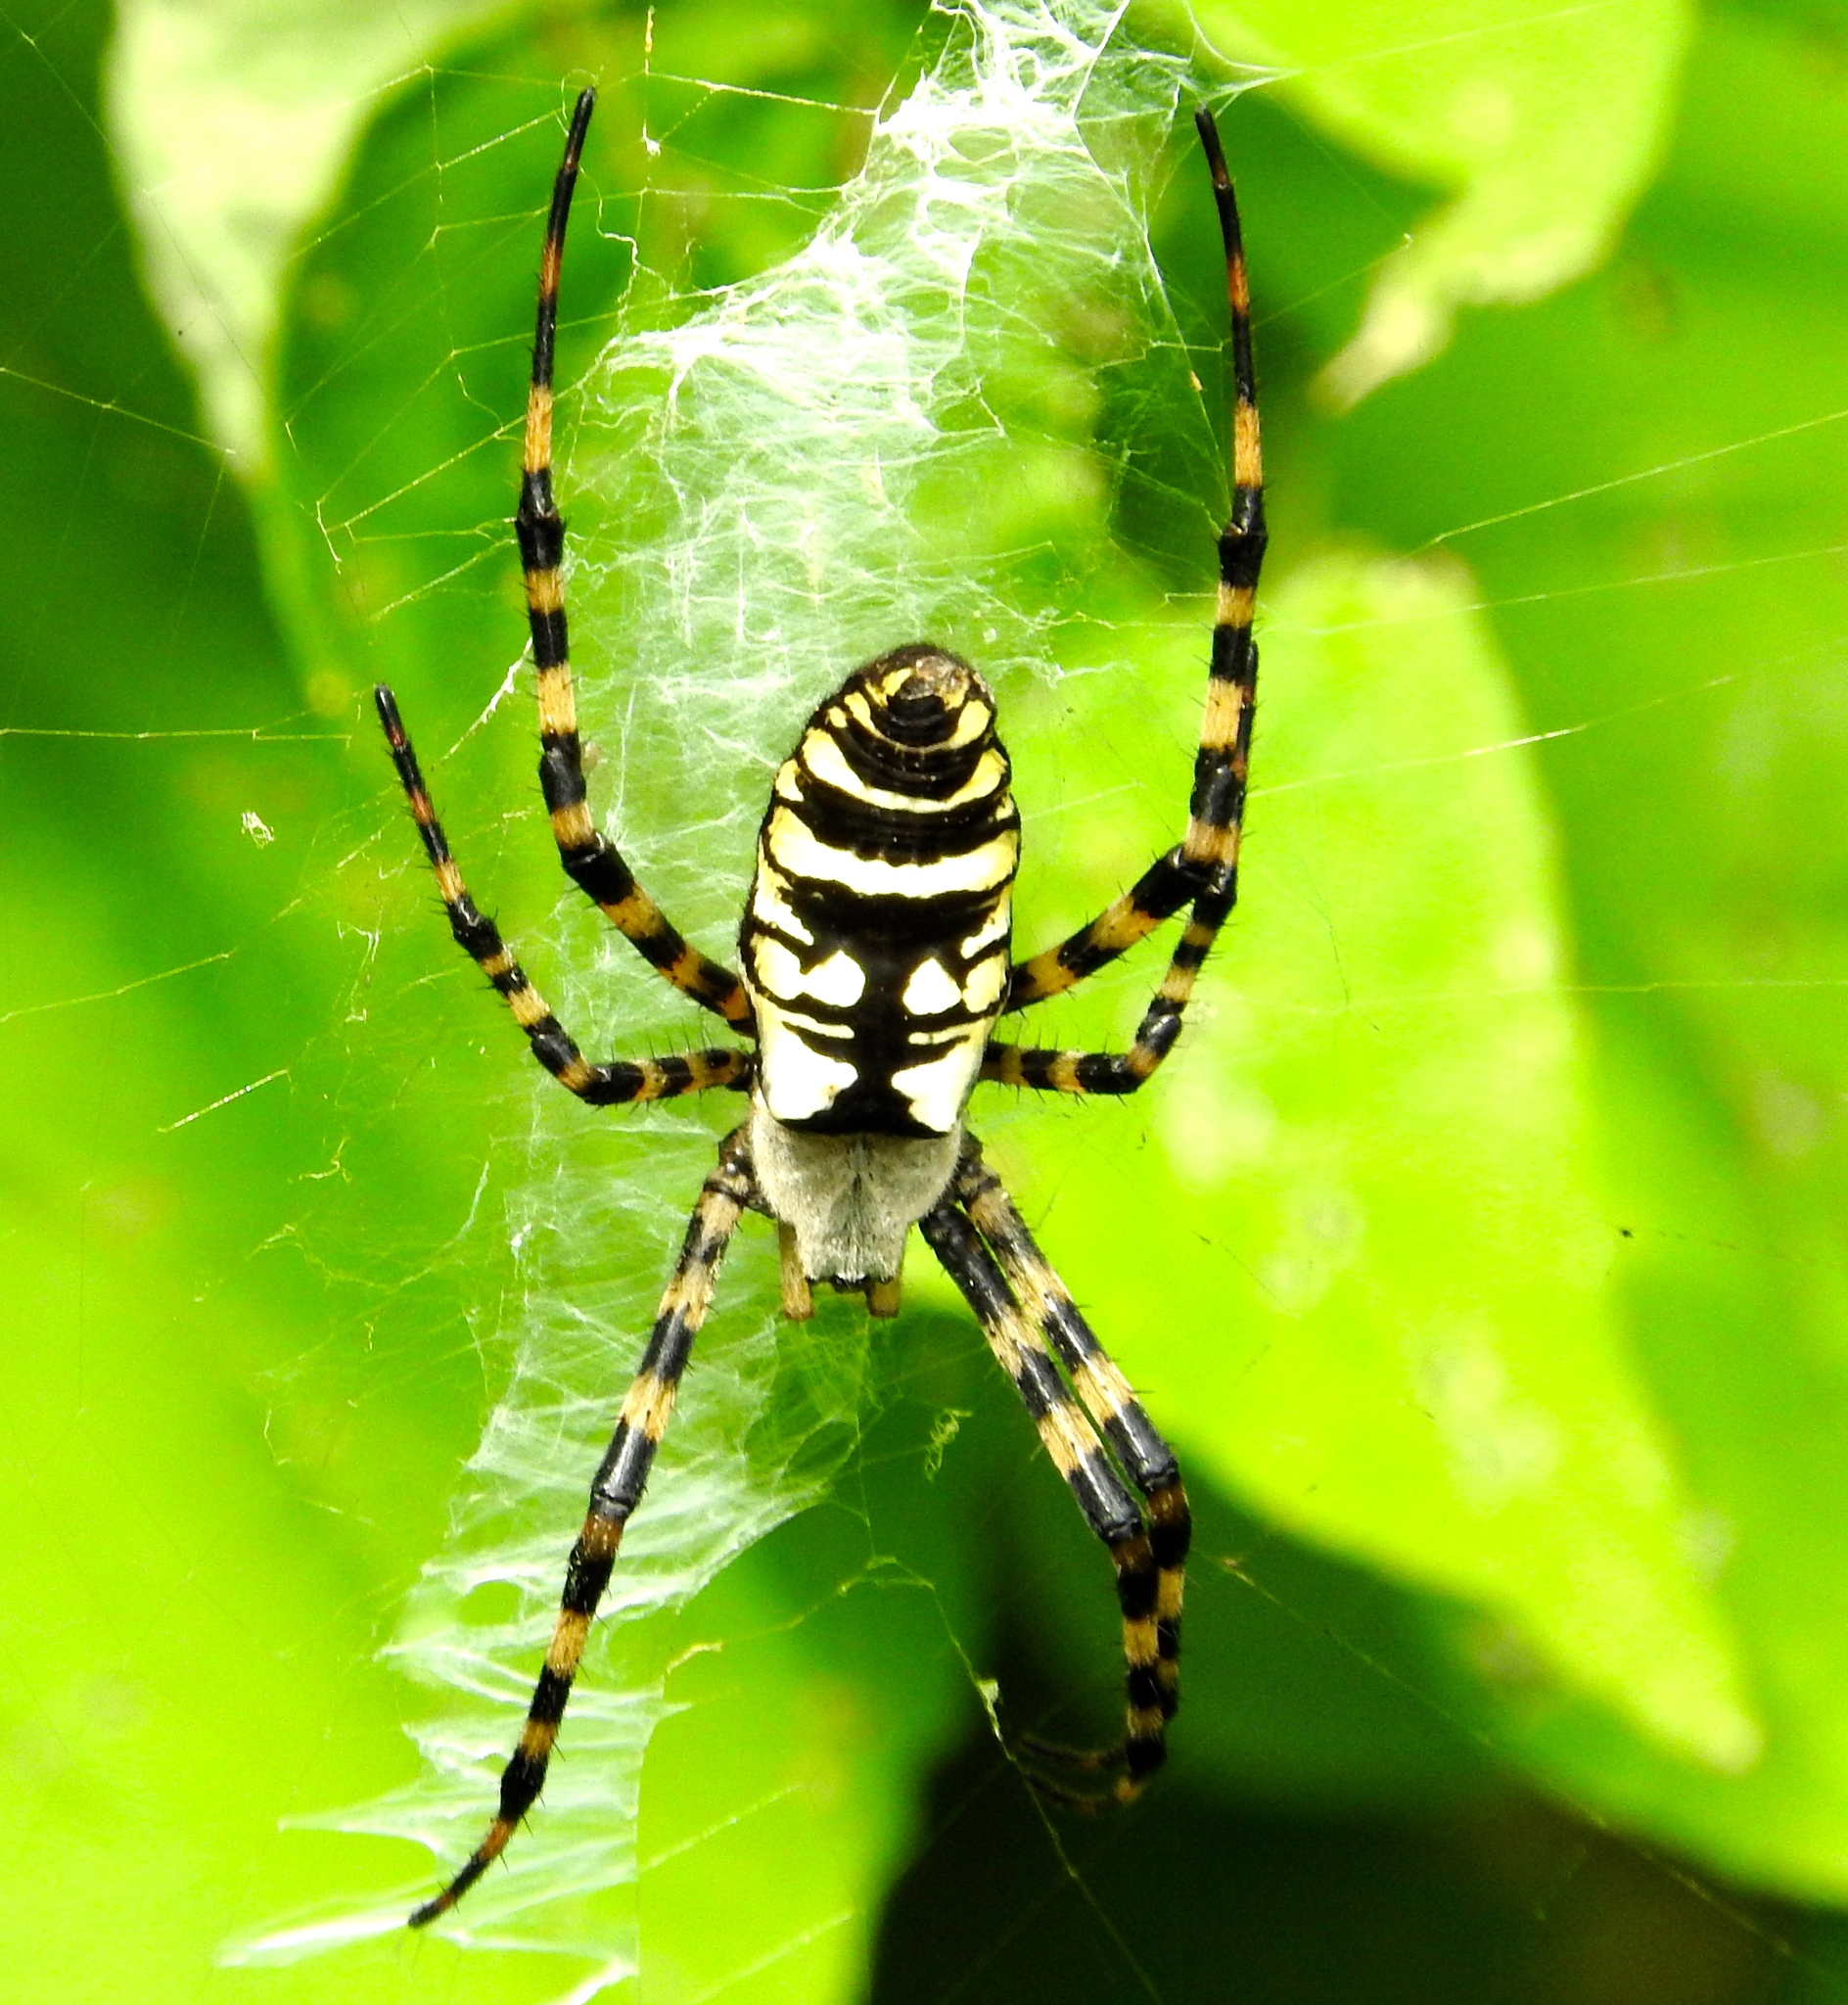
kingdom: Animalia
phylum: Arthropoda
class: Arachnida
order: Araneae
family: Araneidae
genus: Argiope
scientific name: Argiope aurantia
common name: Orb weavers
